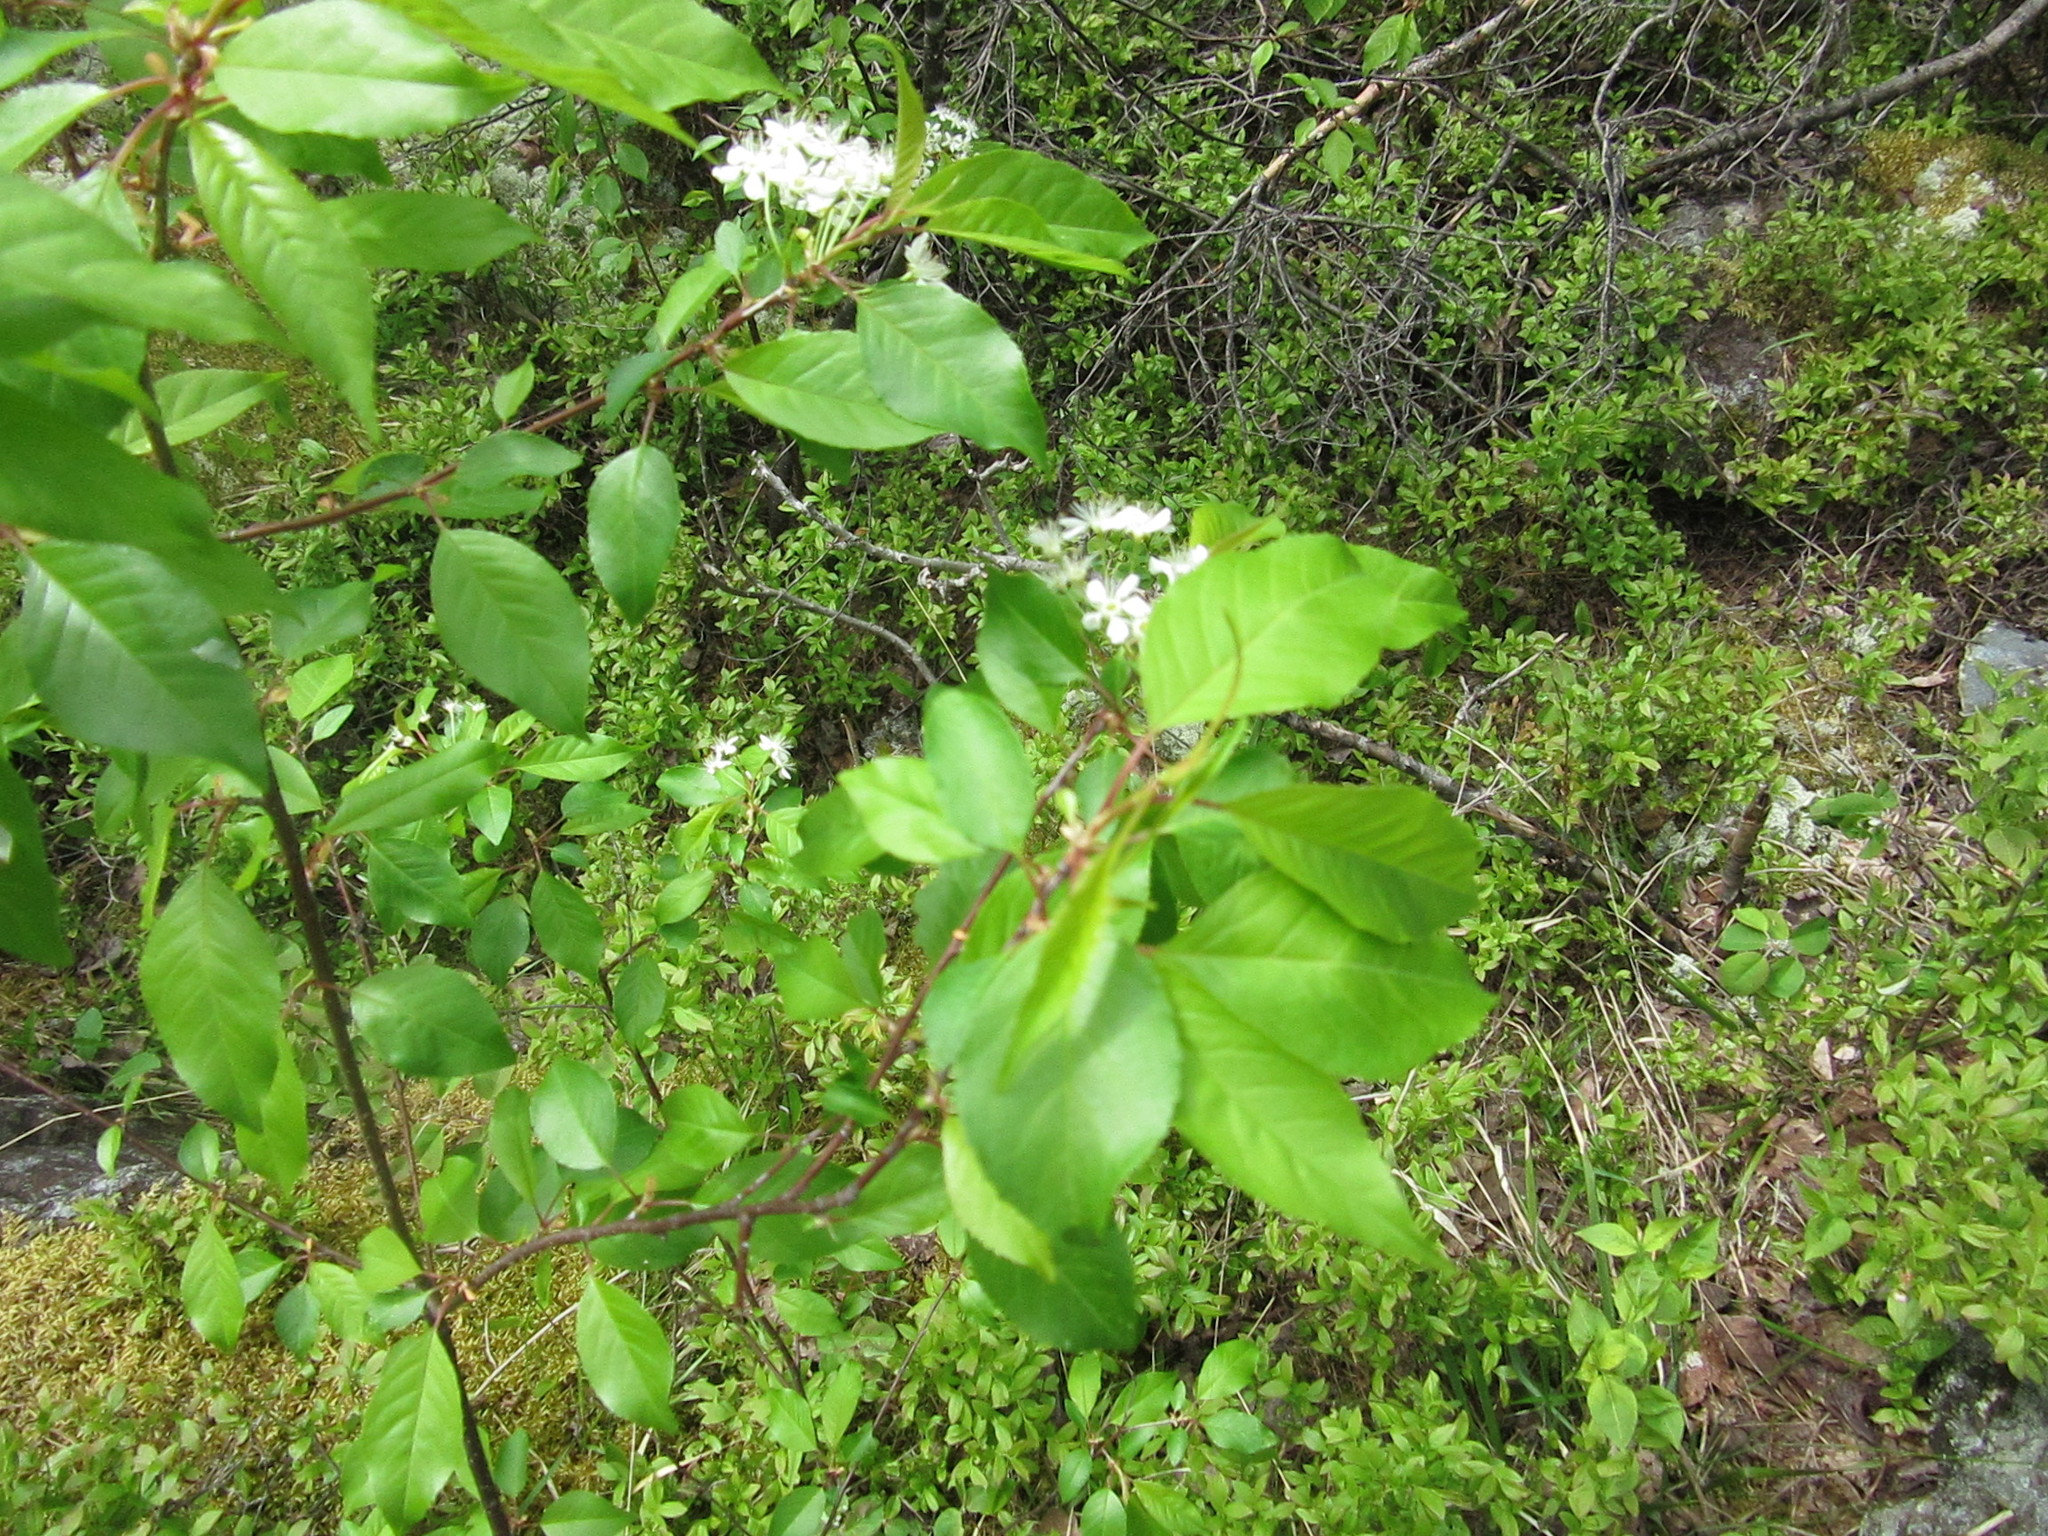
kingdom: Plantae
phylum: Tracheophyta
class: Magnoliopsida
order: Rosales
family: Rosaceae
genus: Prunus
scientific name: Prunus pensylvanica
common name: Pin cherry
